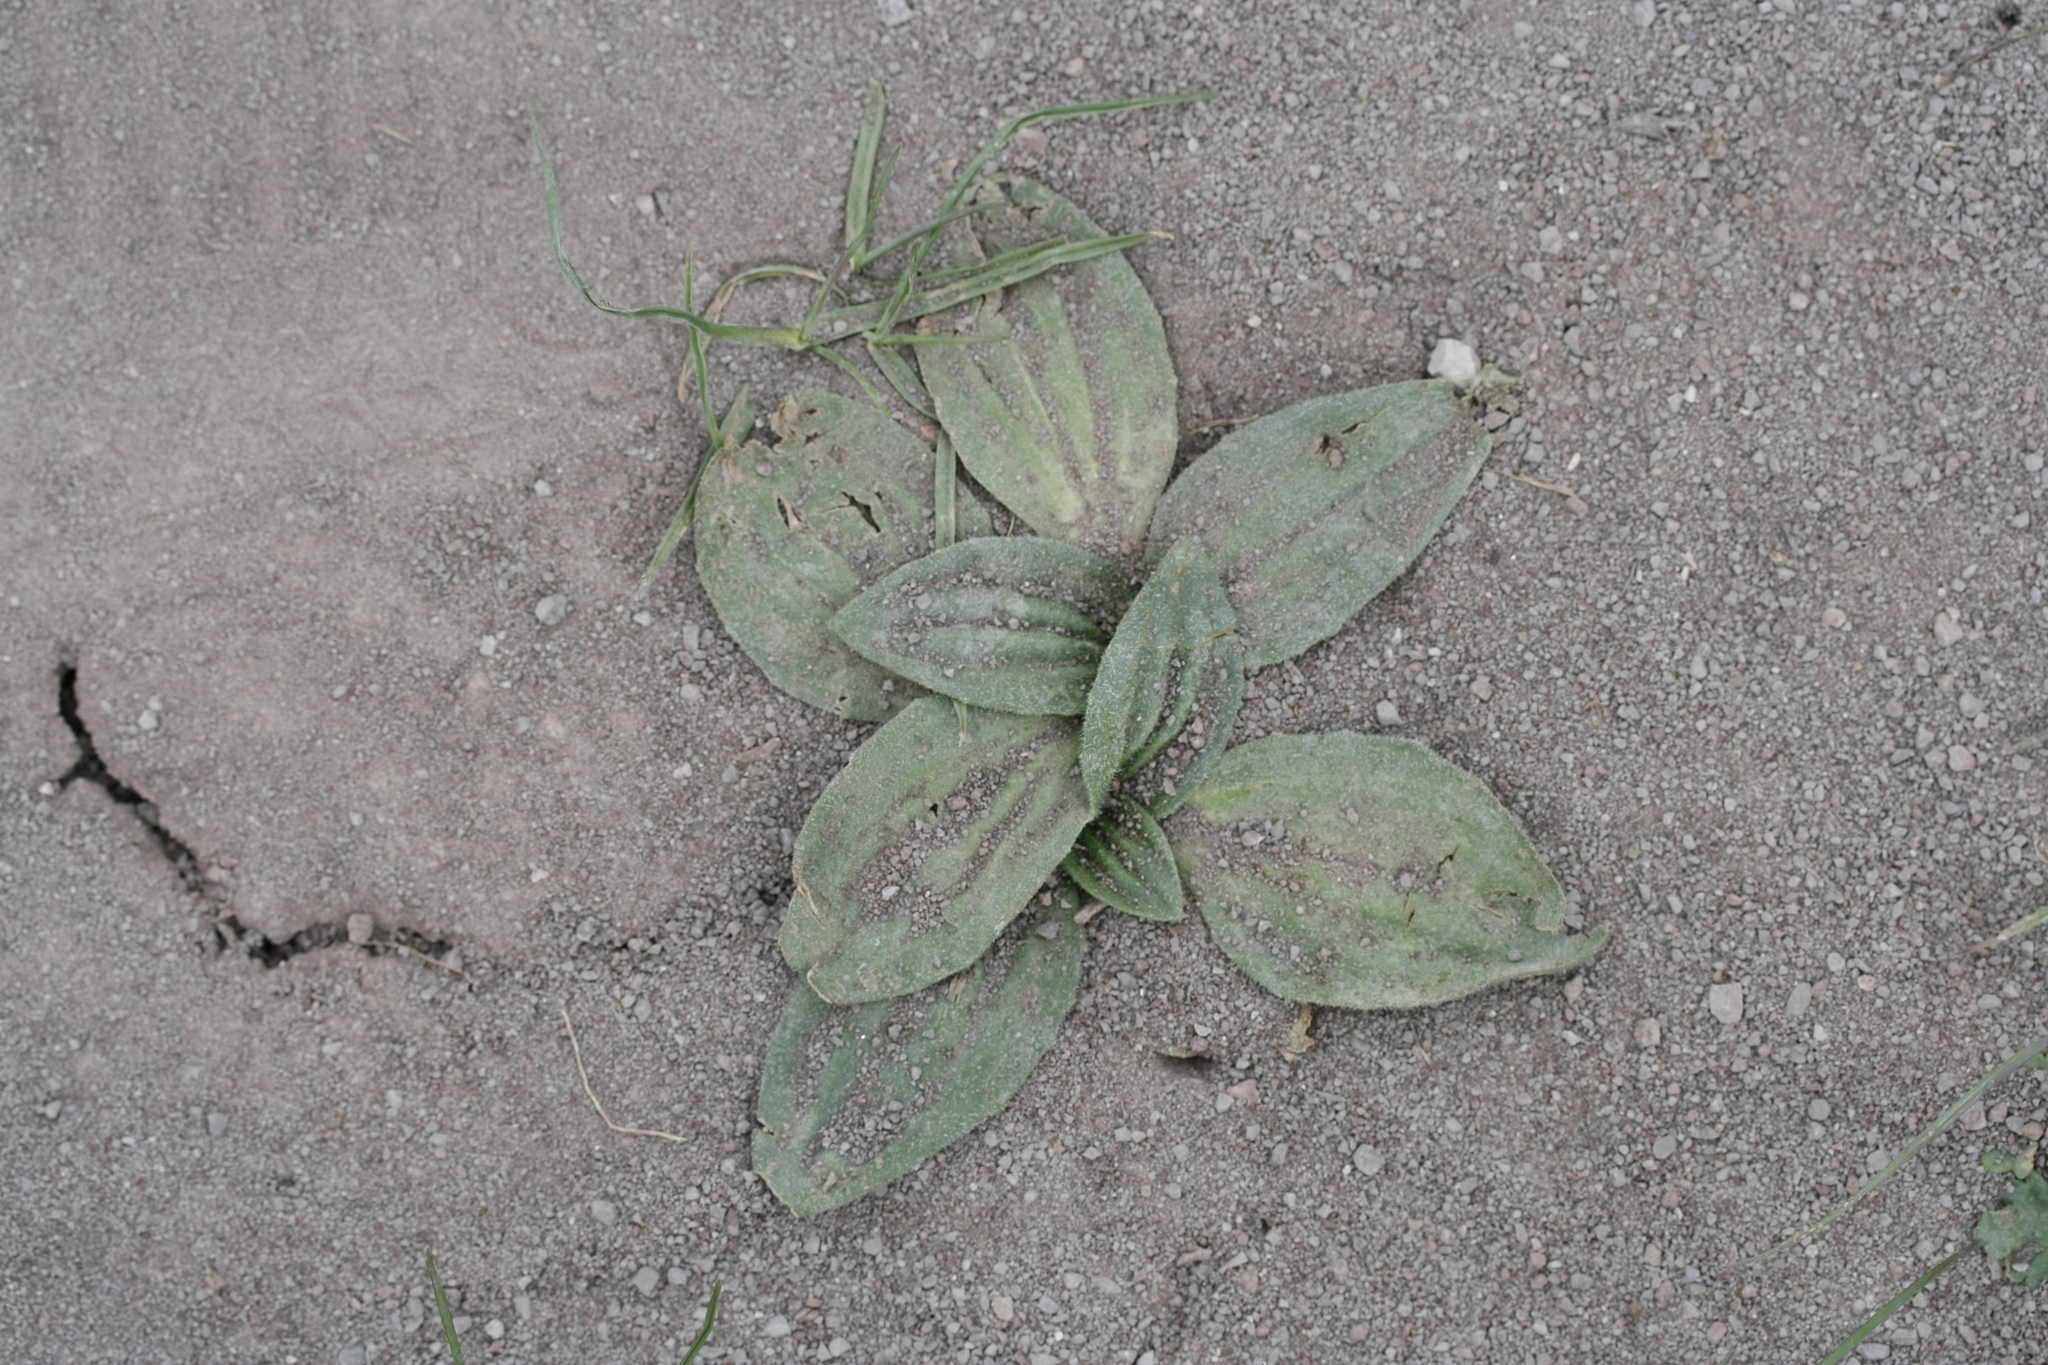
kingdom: Plantae
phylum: Tracheophyta
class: Magnoliopsida
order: Lamiales
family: Plantaginaceae
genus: Plantago
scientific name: Plantago media
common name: Hoary plantain
